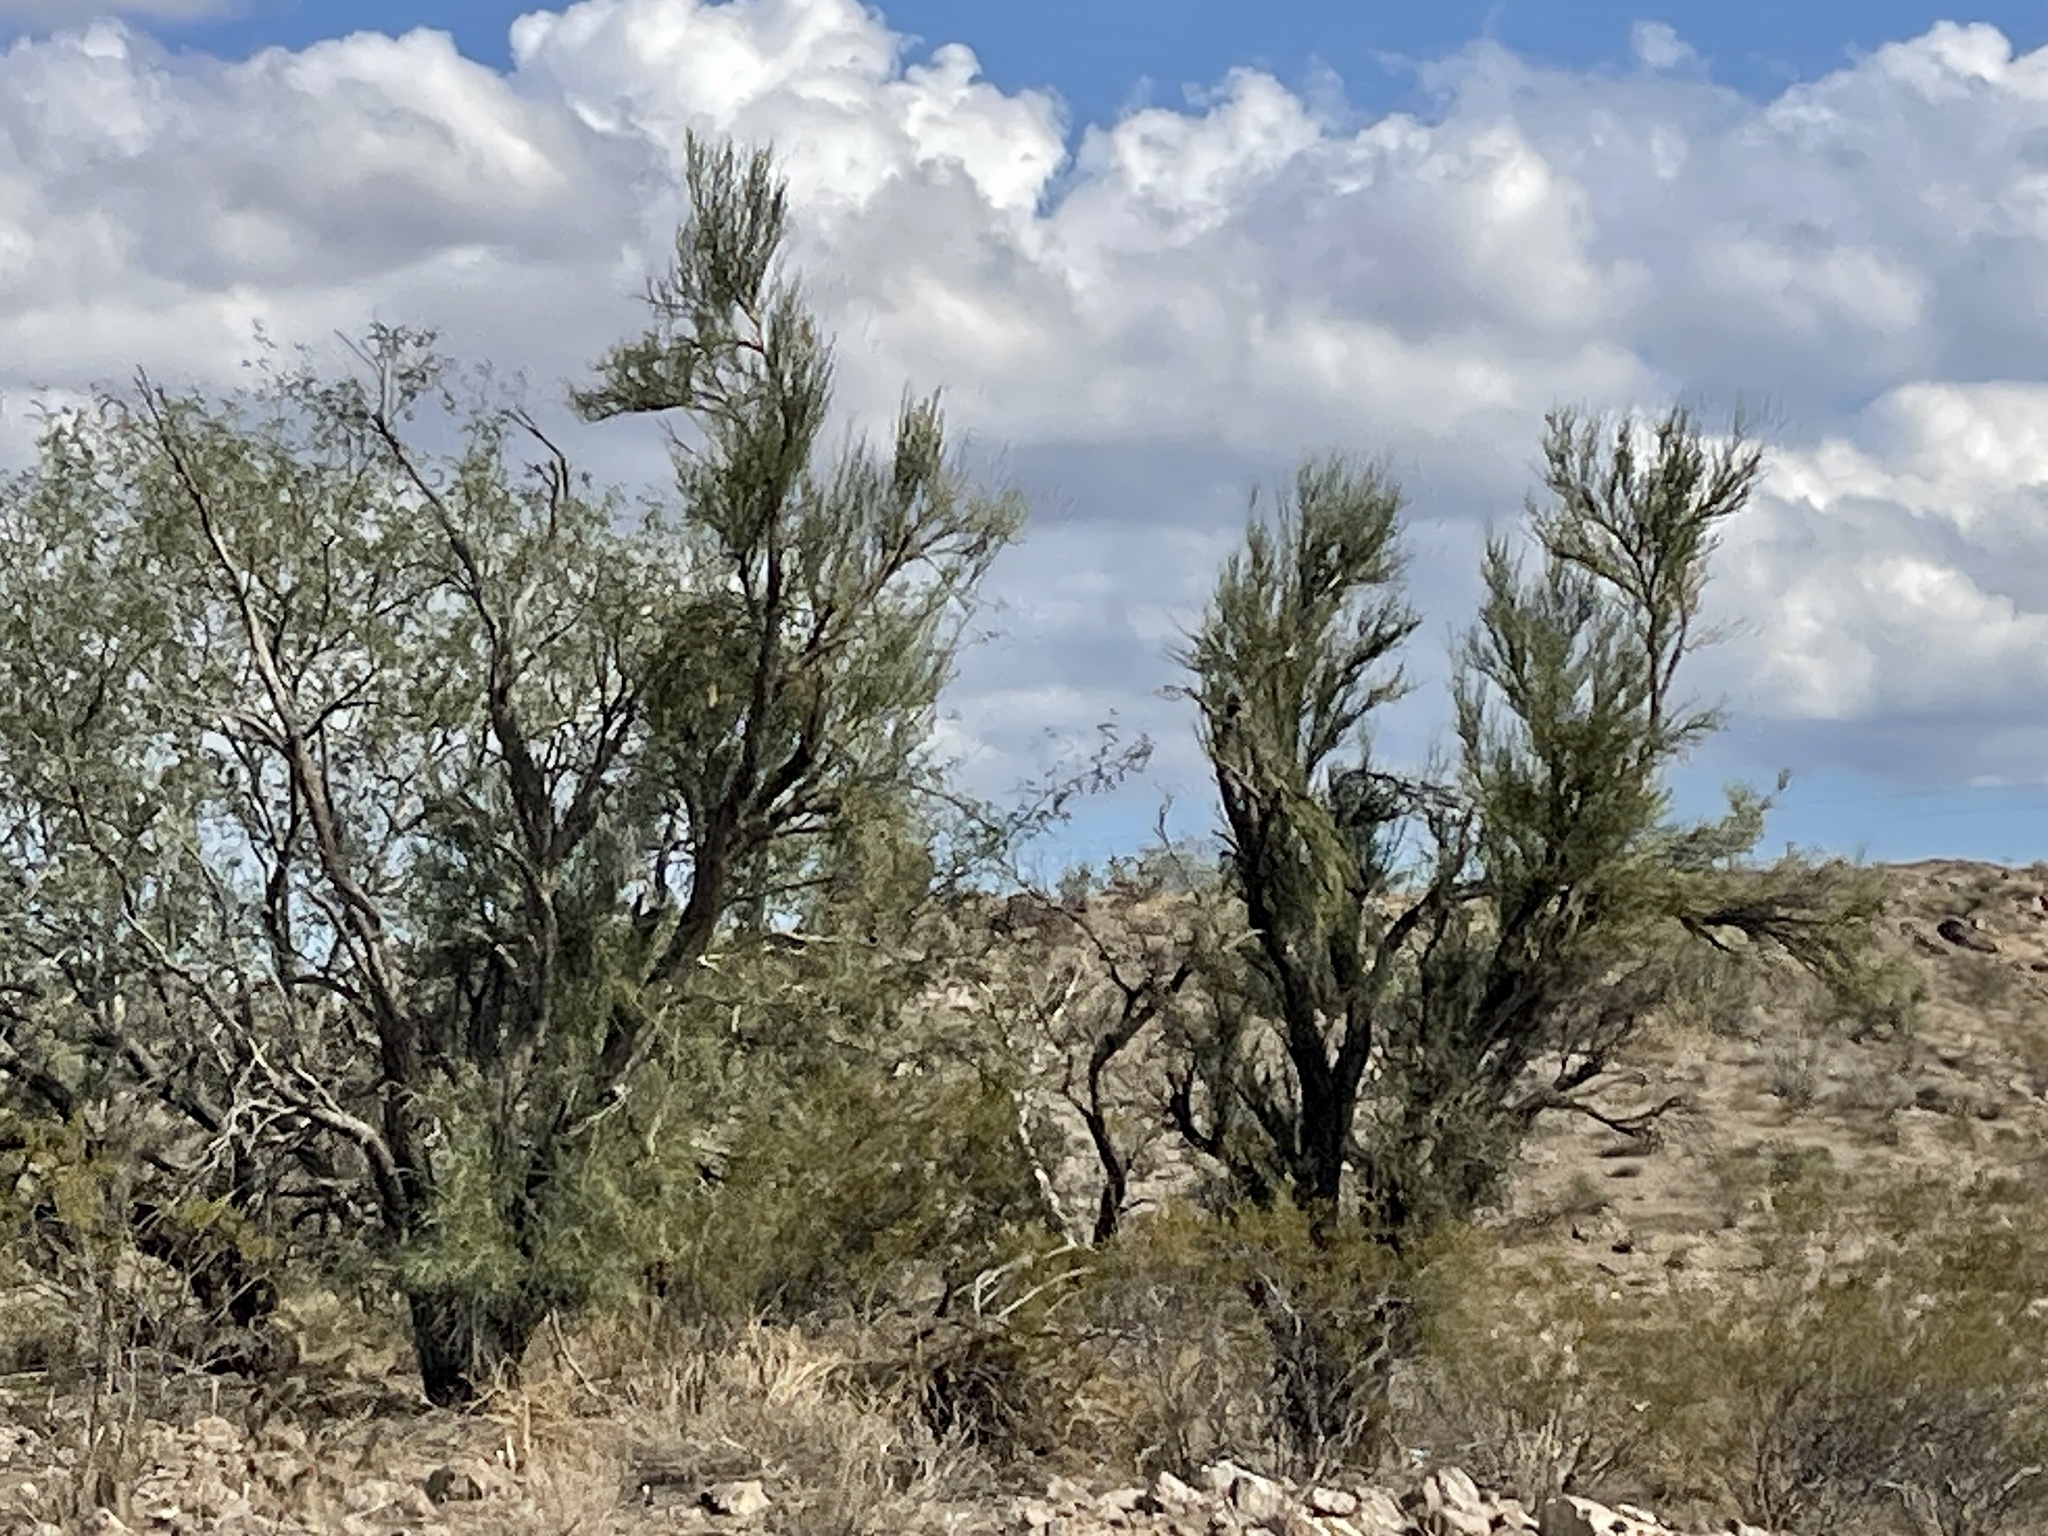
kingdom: Plantae
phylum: Tracheophyta
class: Magnoliopsida
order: Celastrales
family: Celastraceae
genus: Canotia
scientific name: Canotia holacantha
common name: Crucifixion thorns
